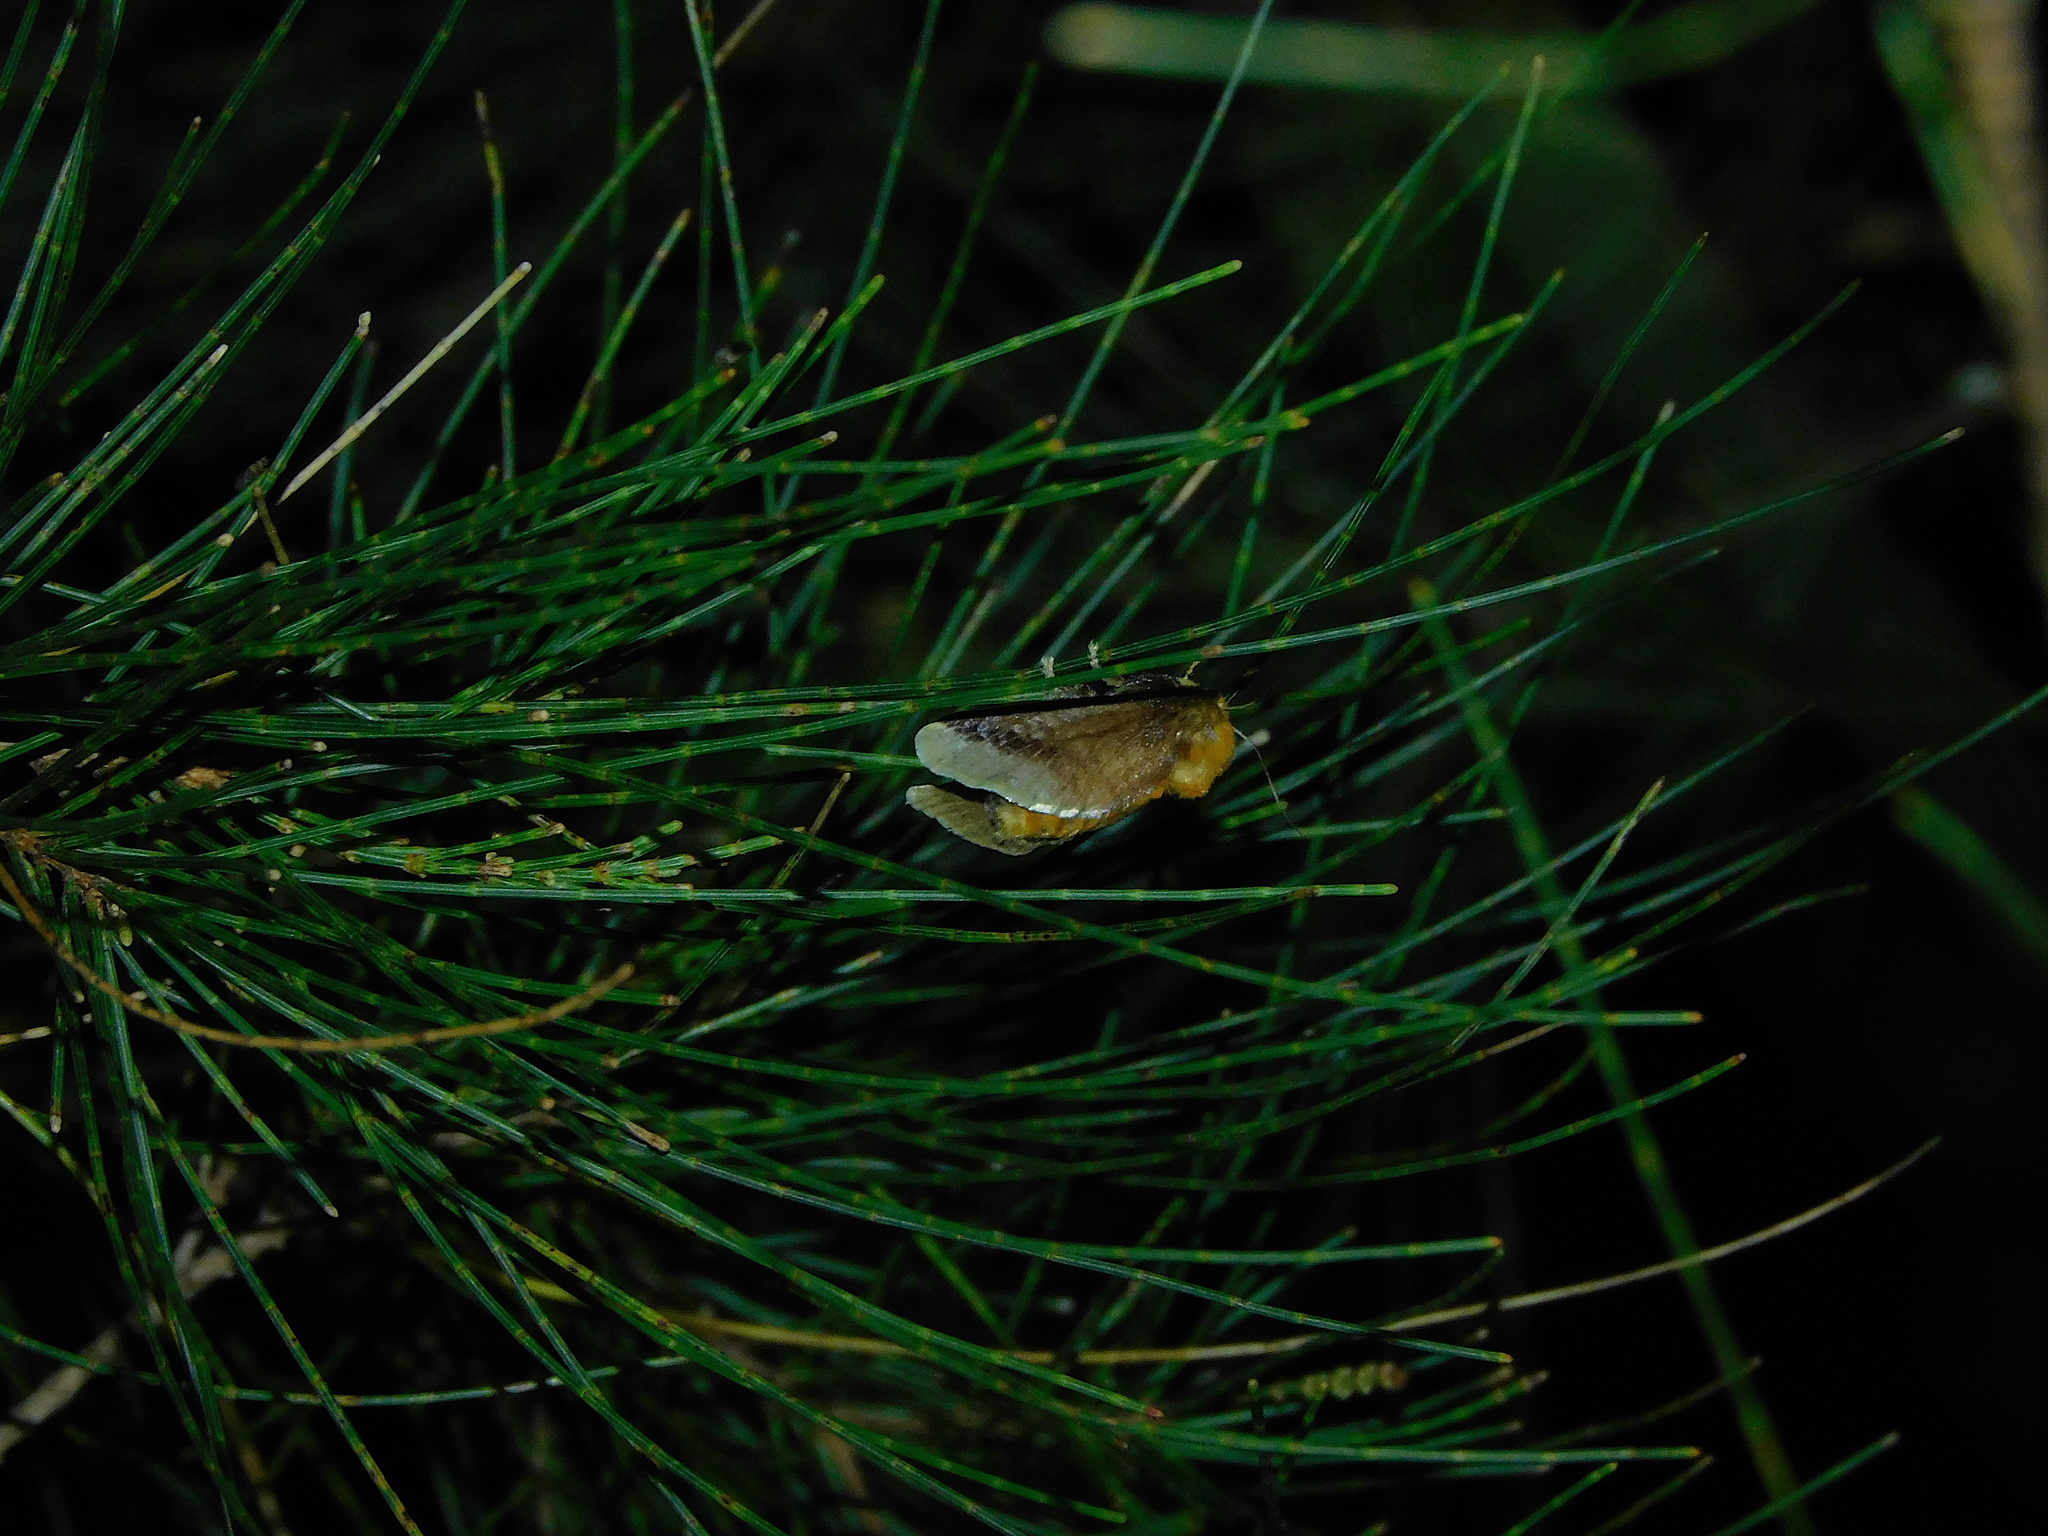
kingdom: Animalia
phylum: Arthropoda
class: Insecta
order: Lepidoptera
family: Limacodidae
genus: Doratifera
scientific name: Doratifera oxleyi
